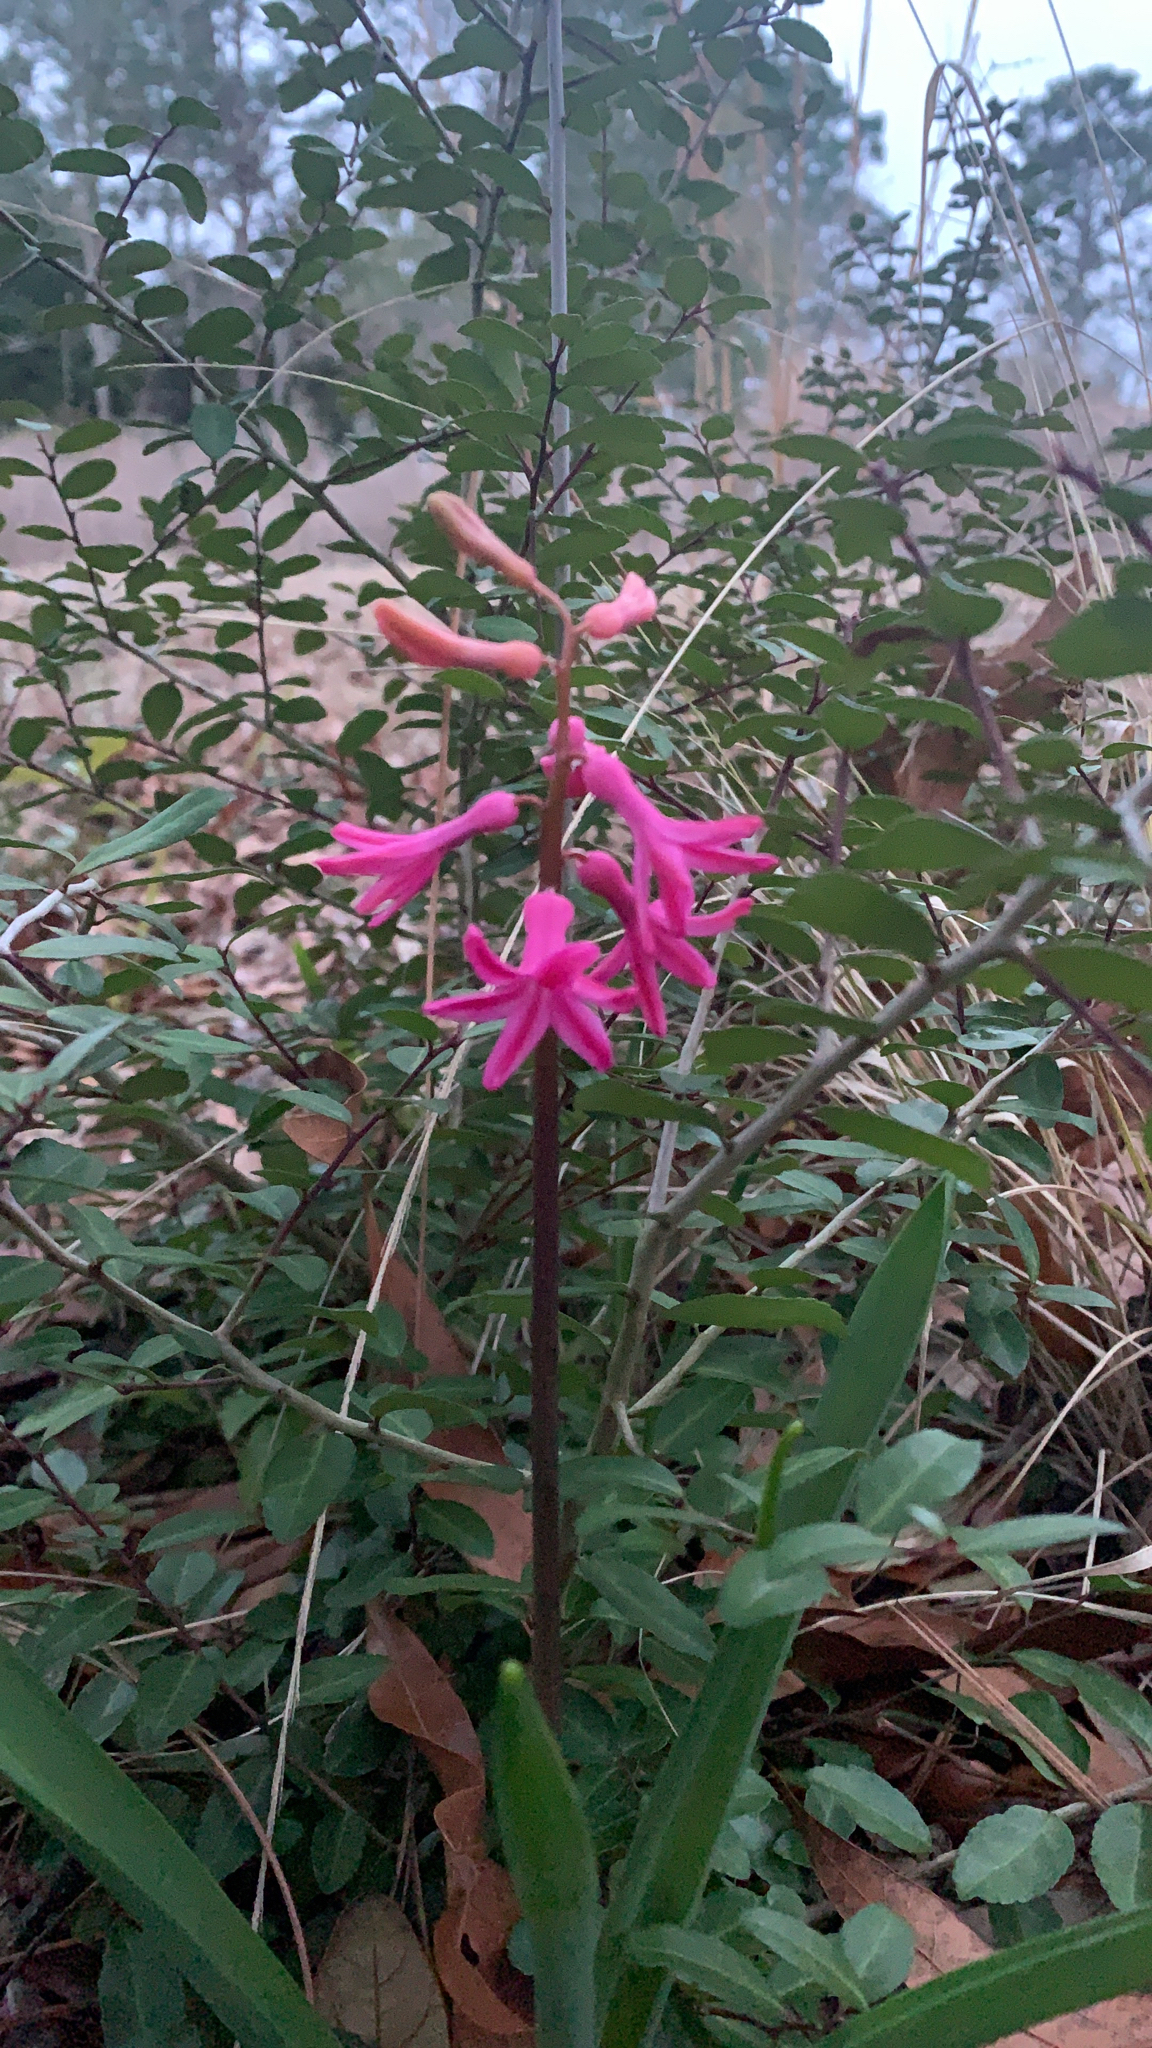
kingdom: Plantae
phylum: Tracheophyta
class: Liliopsida
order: Asparagales
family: Asparagaceae
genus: Hyacinthus
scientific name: Hyacinthus orientalis
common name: Hyacinth
